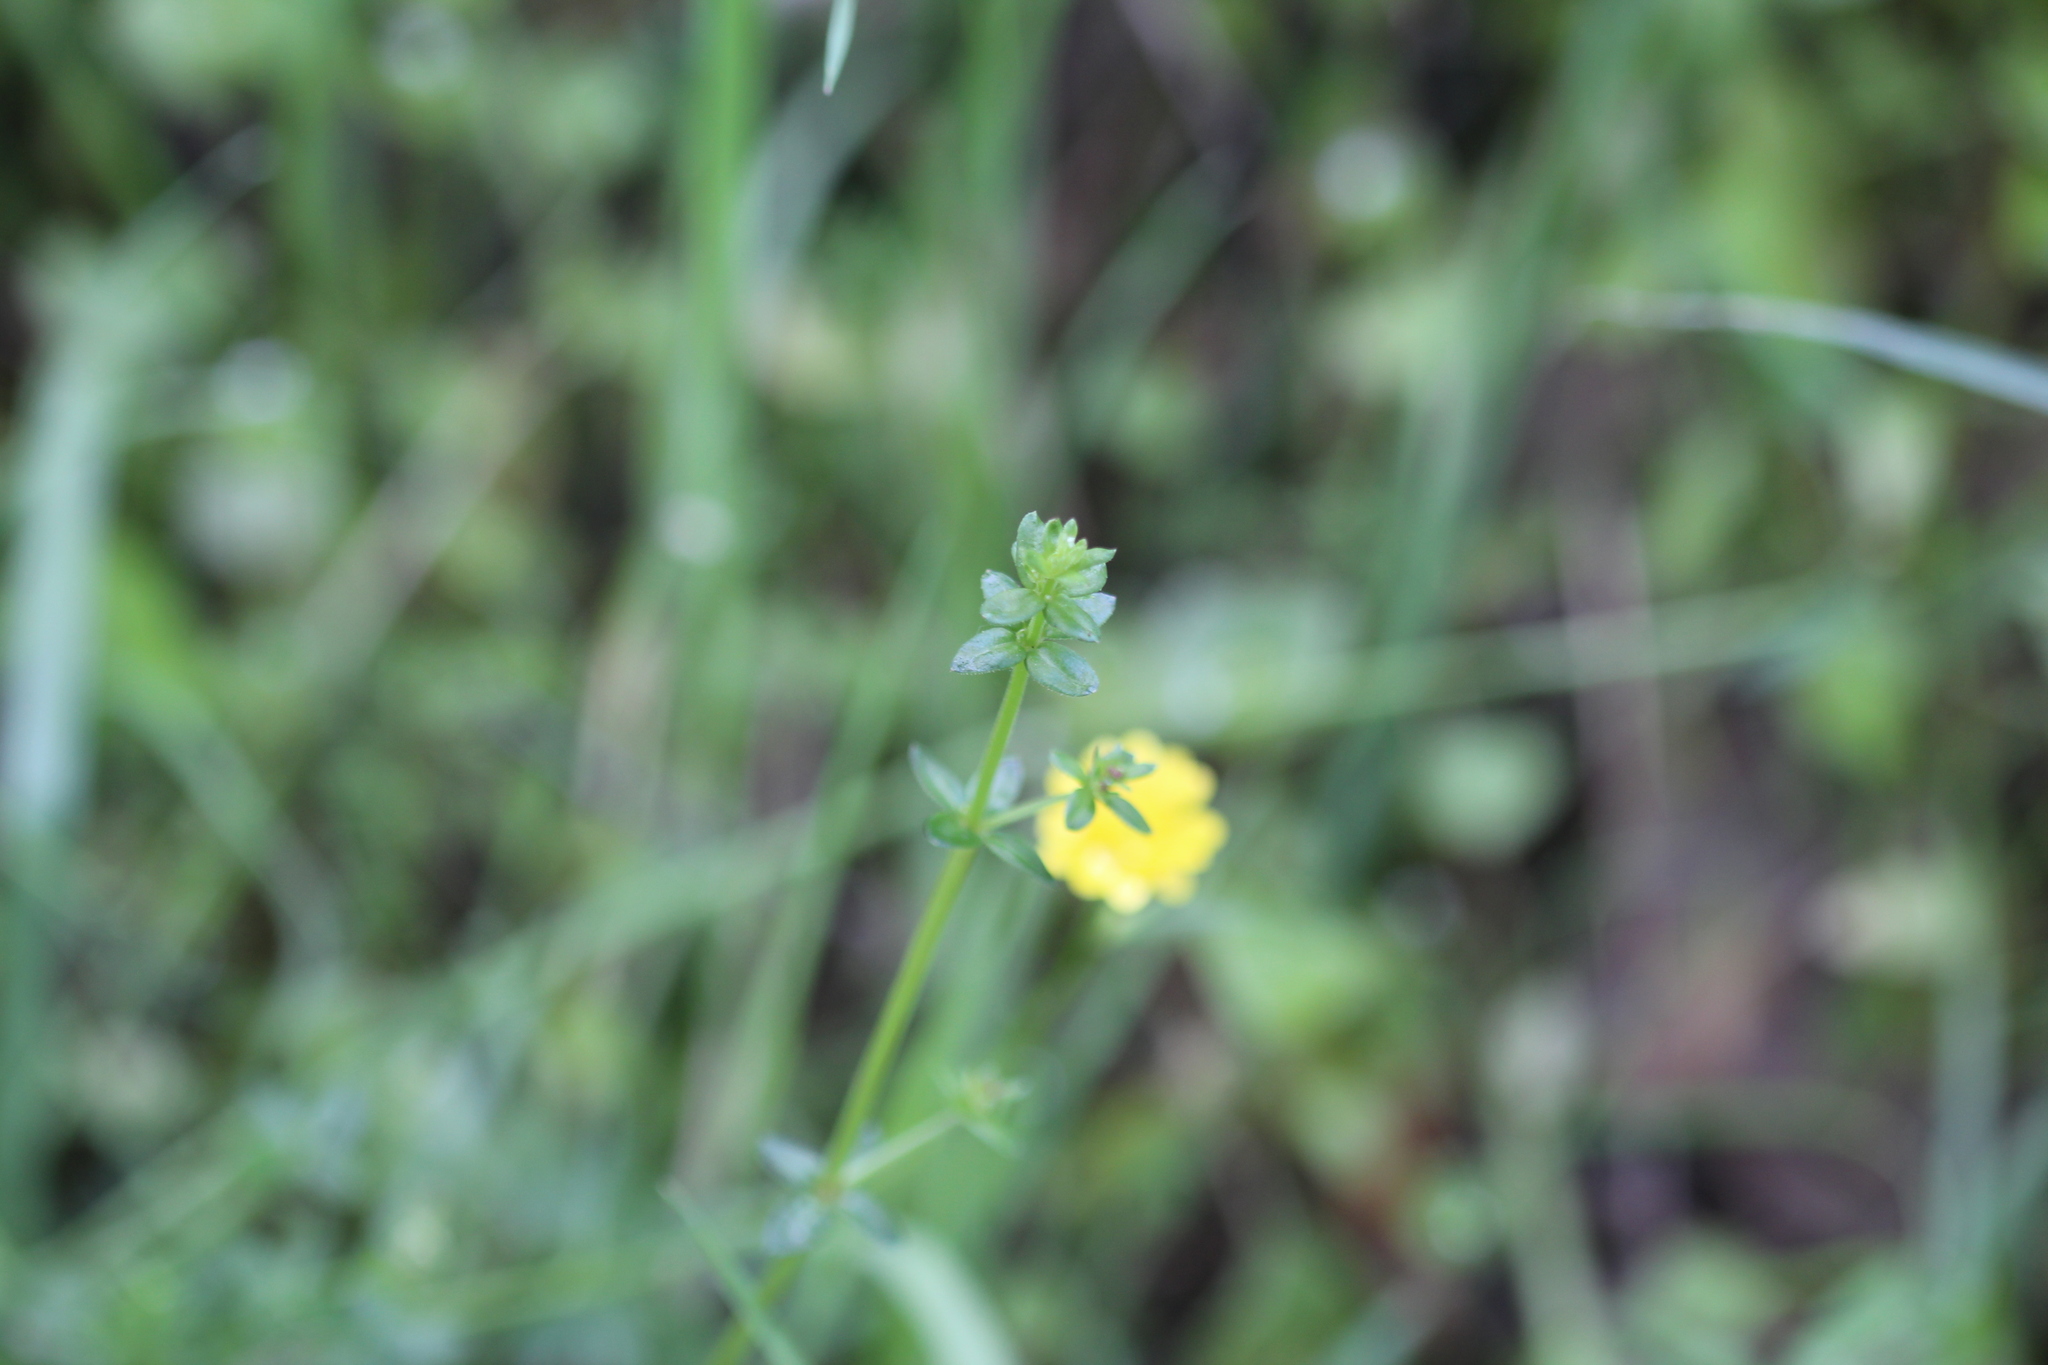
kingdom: Plantae
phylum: Tracheophyta
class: Magnoliopsida
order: Gentianales
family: Rubiaceae
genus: Galium
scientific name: Galium porrigens
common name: Climbing bedstraw
